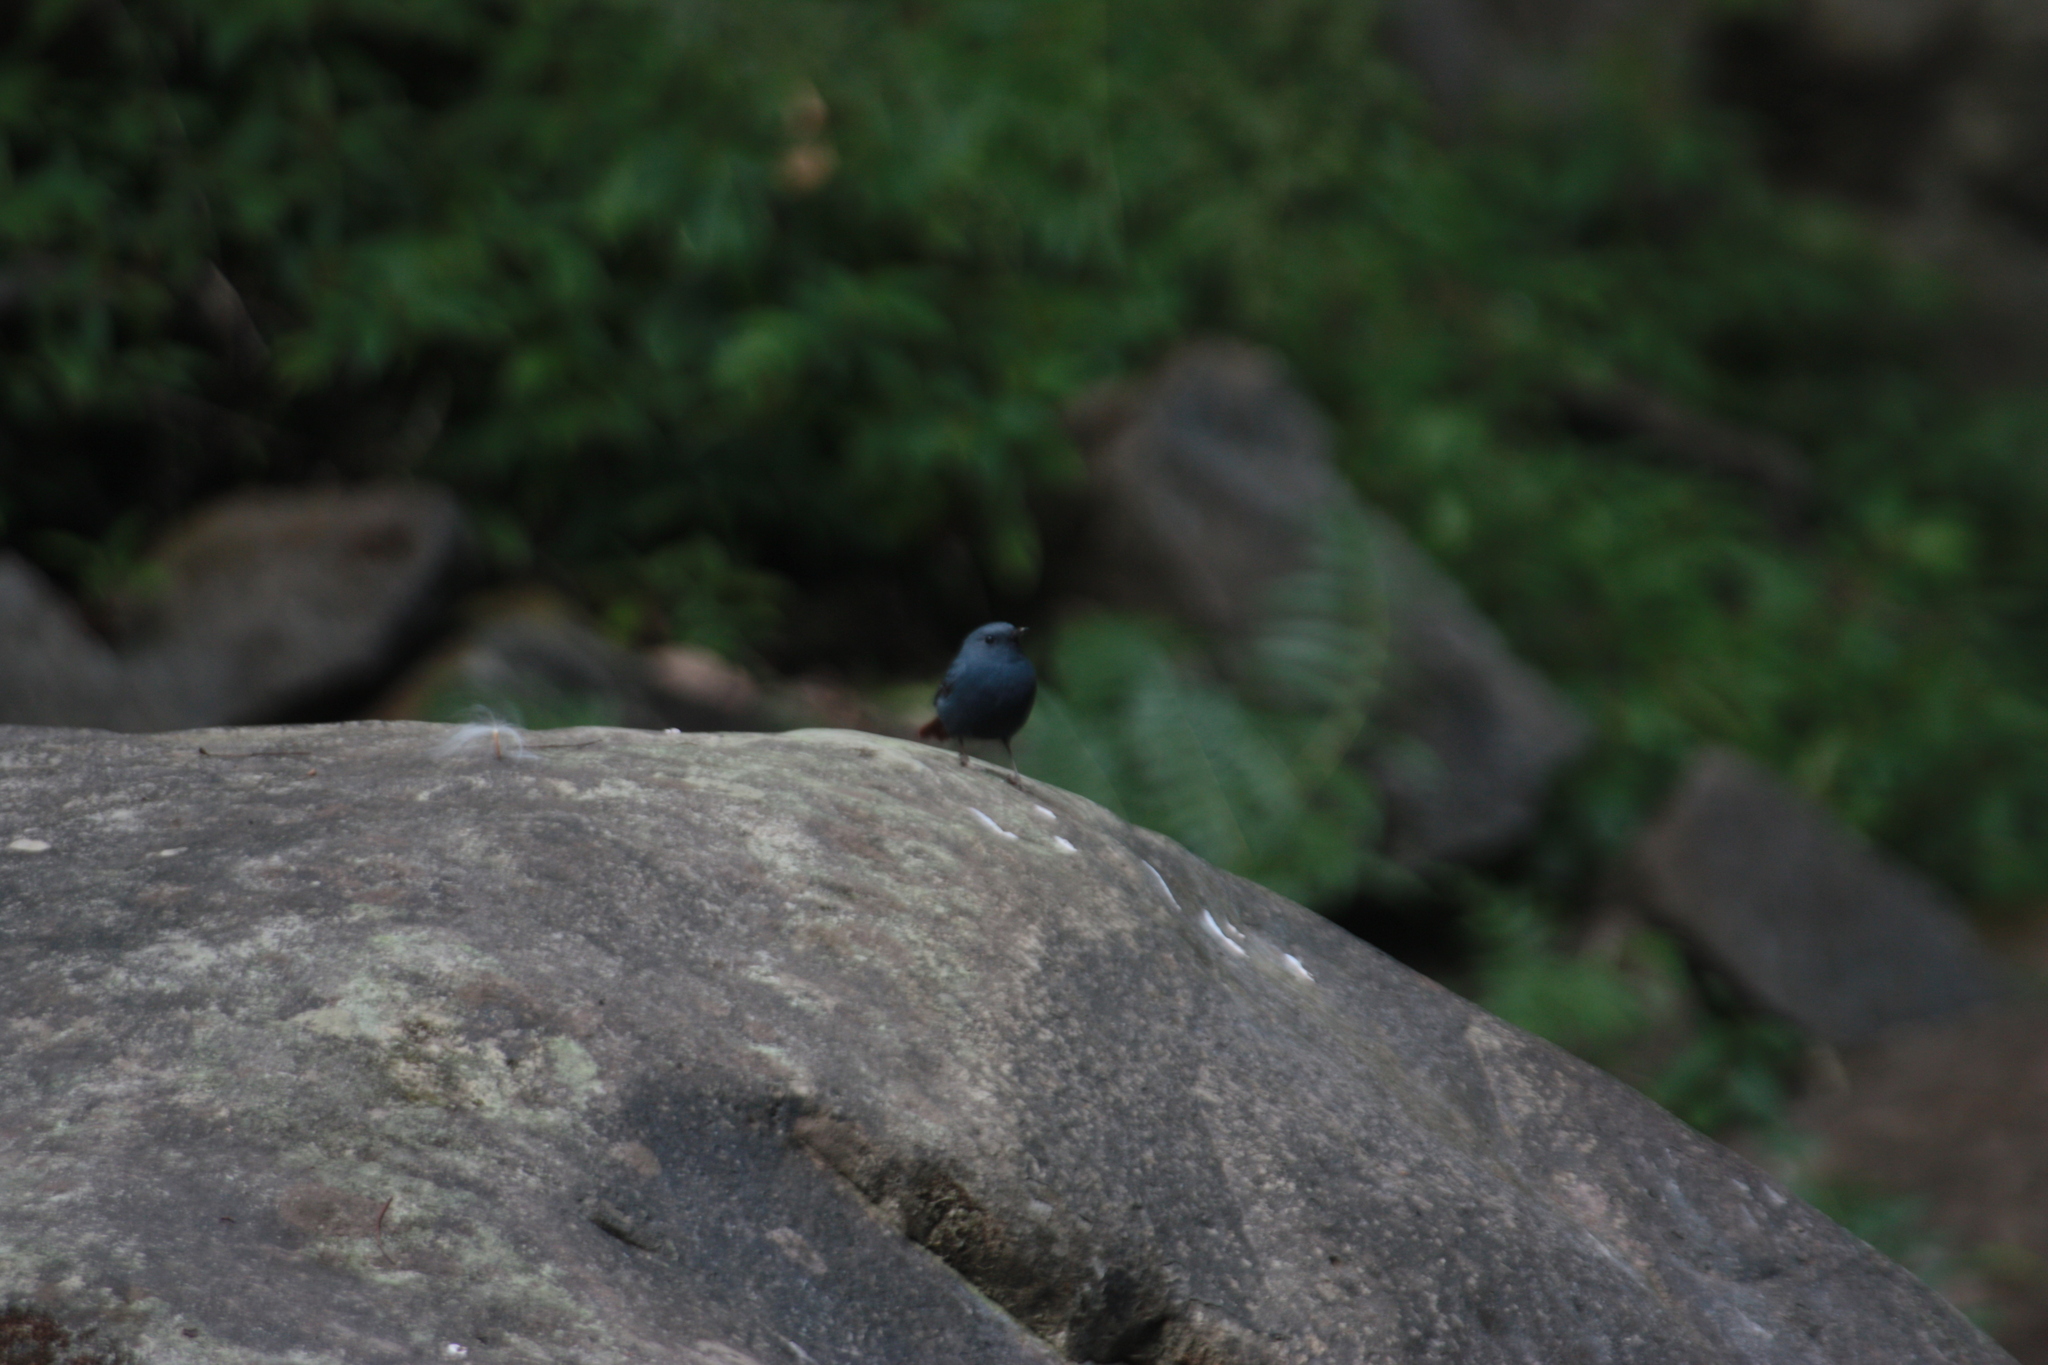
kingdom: Animalia
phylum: Chordata
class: Aves
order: Passeriformes
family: Muscicapidae
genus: Rhyacornis
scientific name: Rhyacornis fuliginosa
